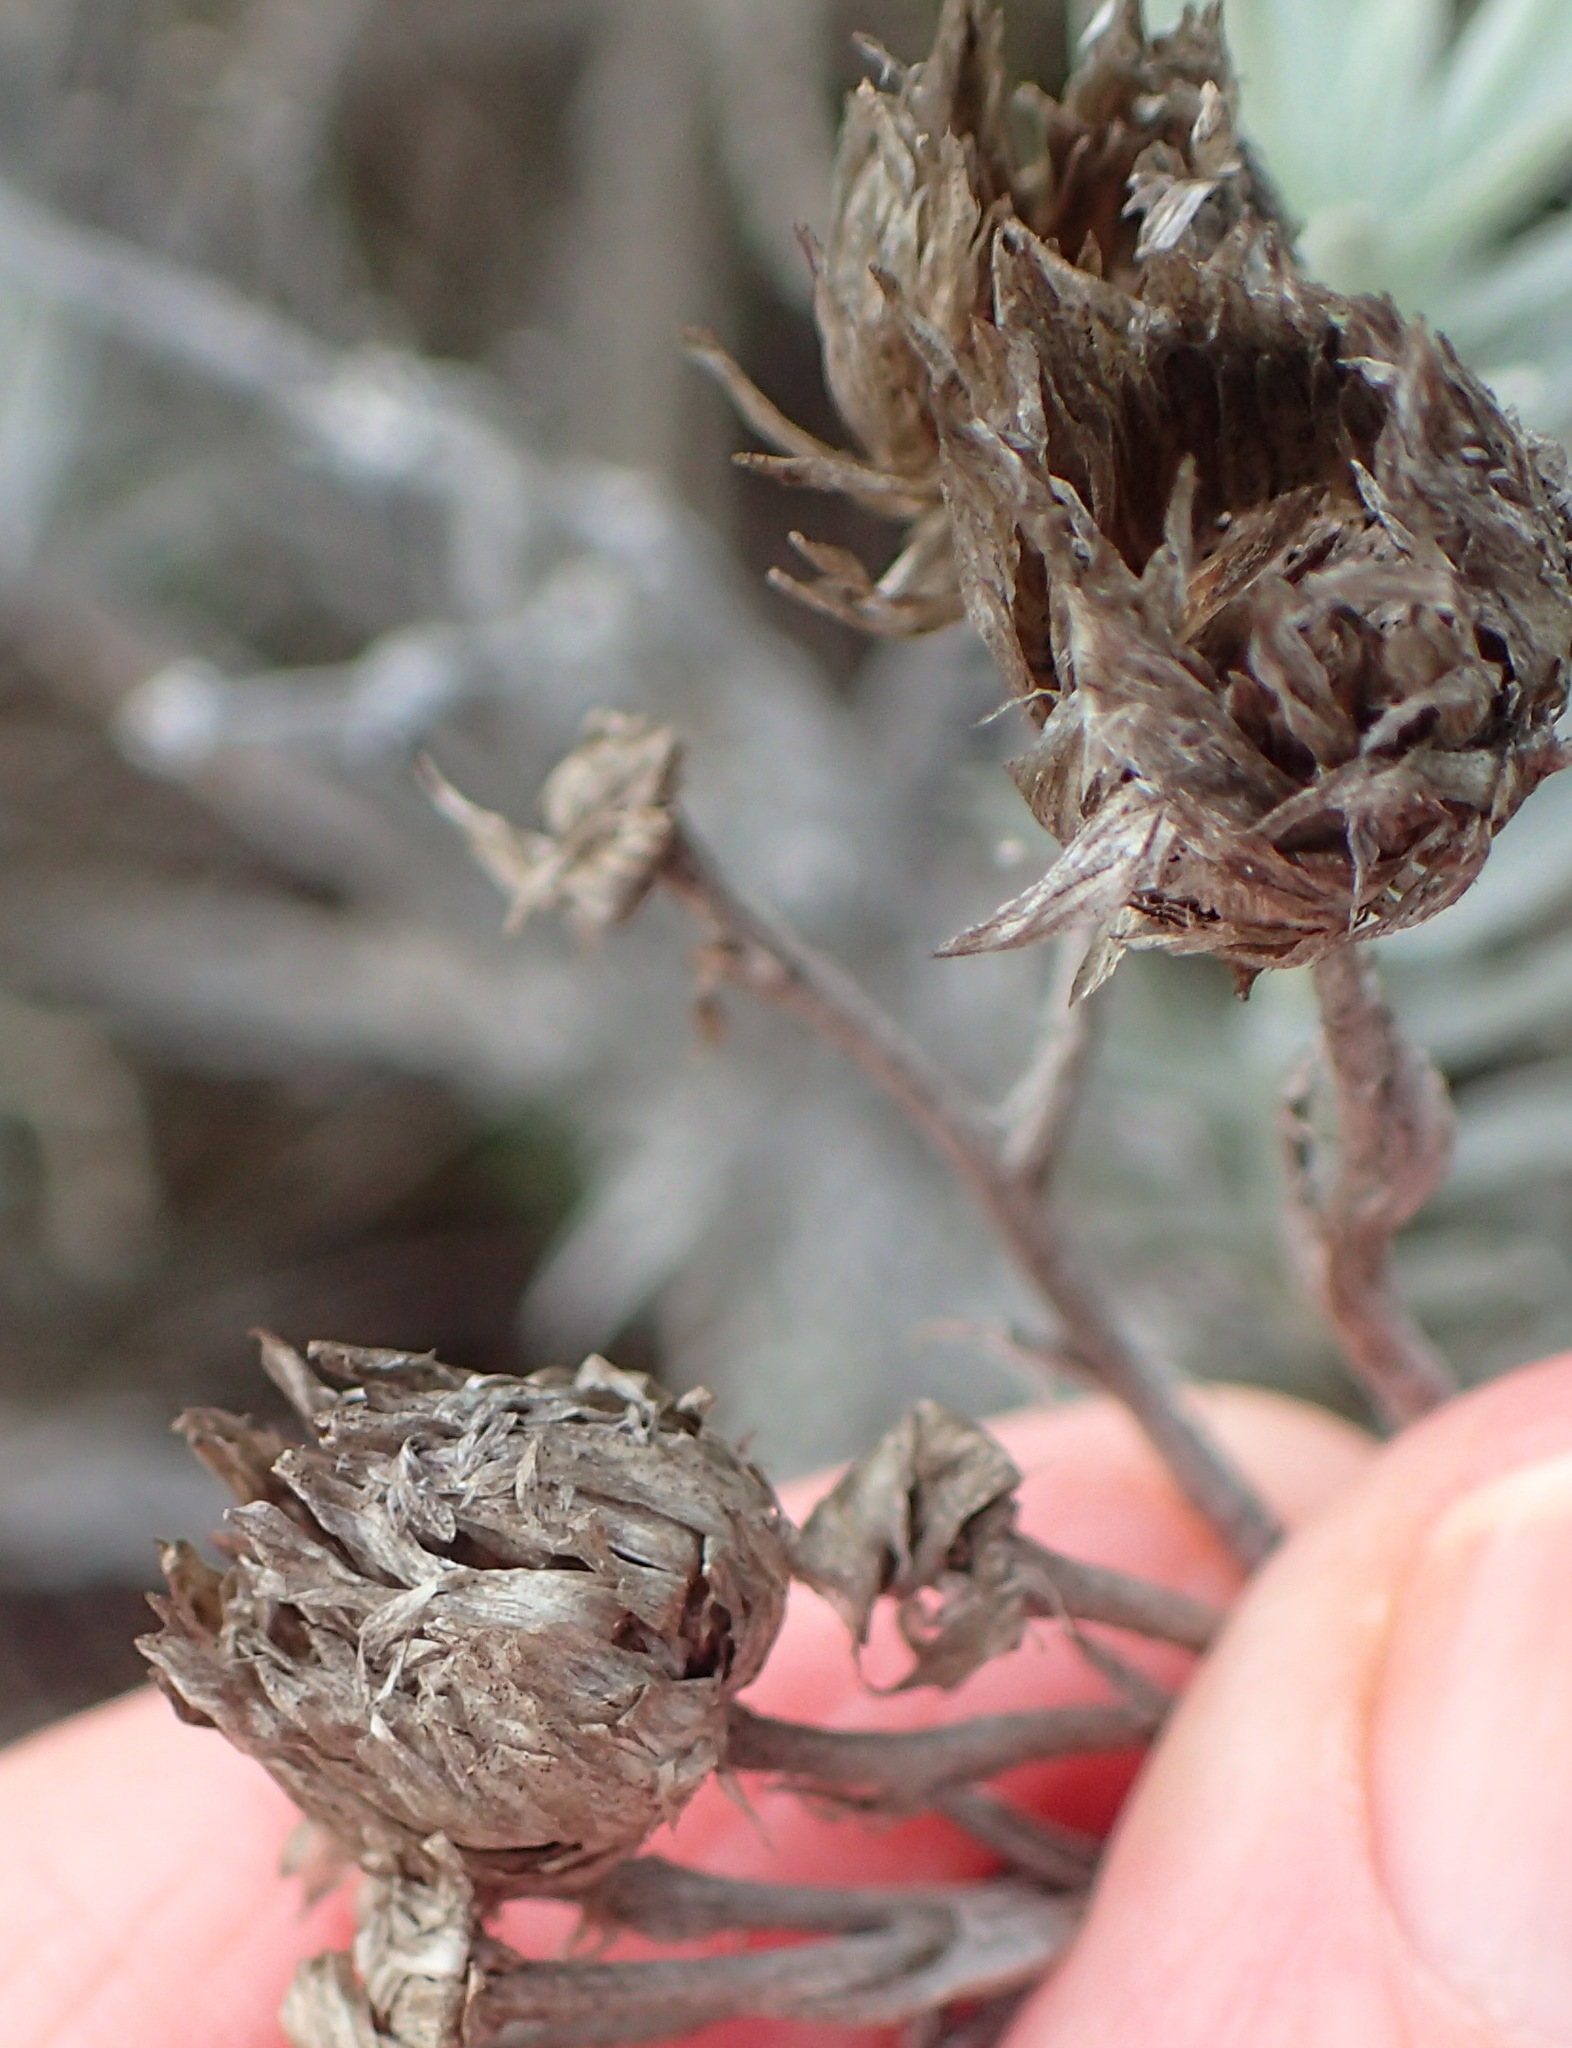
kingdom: Plantae
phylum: Tracheophyta
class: Magnoliopsida
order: Asterales
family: Asteraceae
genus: Achyranthemum
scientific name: Achyranthemum paniculatum
